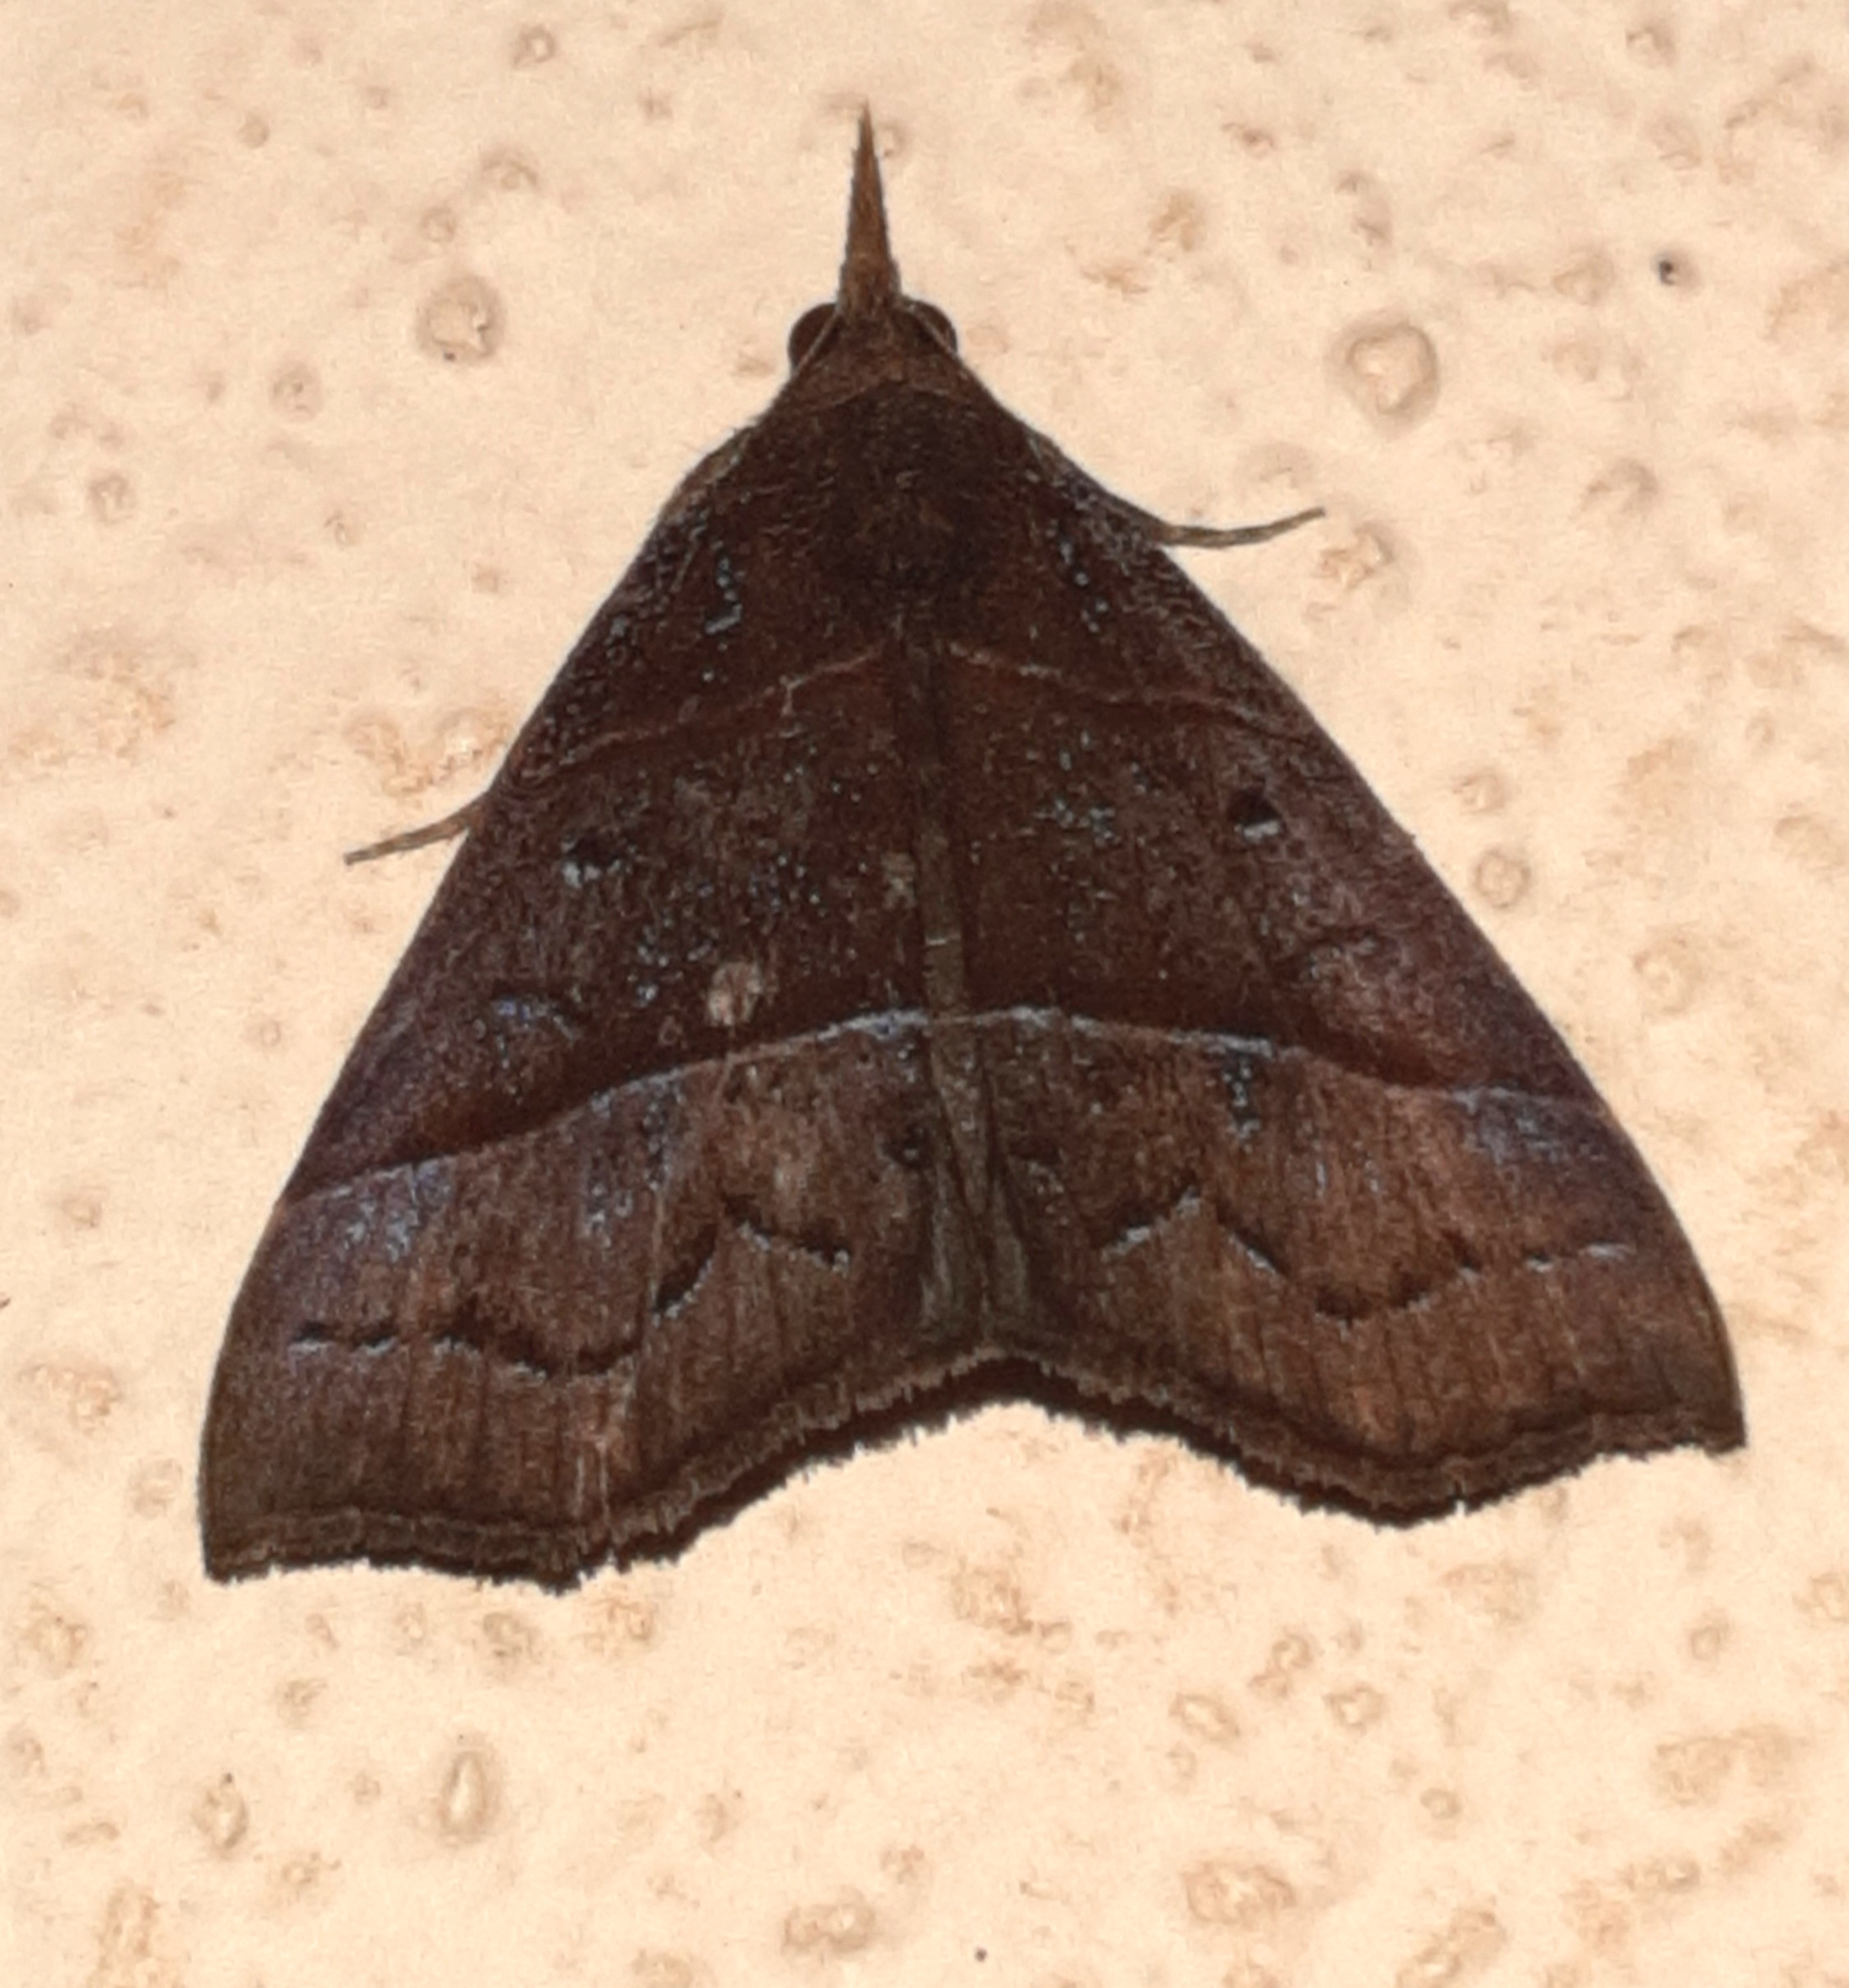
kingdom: Animalia
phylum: Arthropoda
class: Insecta
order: Lepidoptera
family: Erebidae
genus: Hypena
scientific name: Hypena lollia
